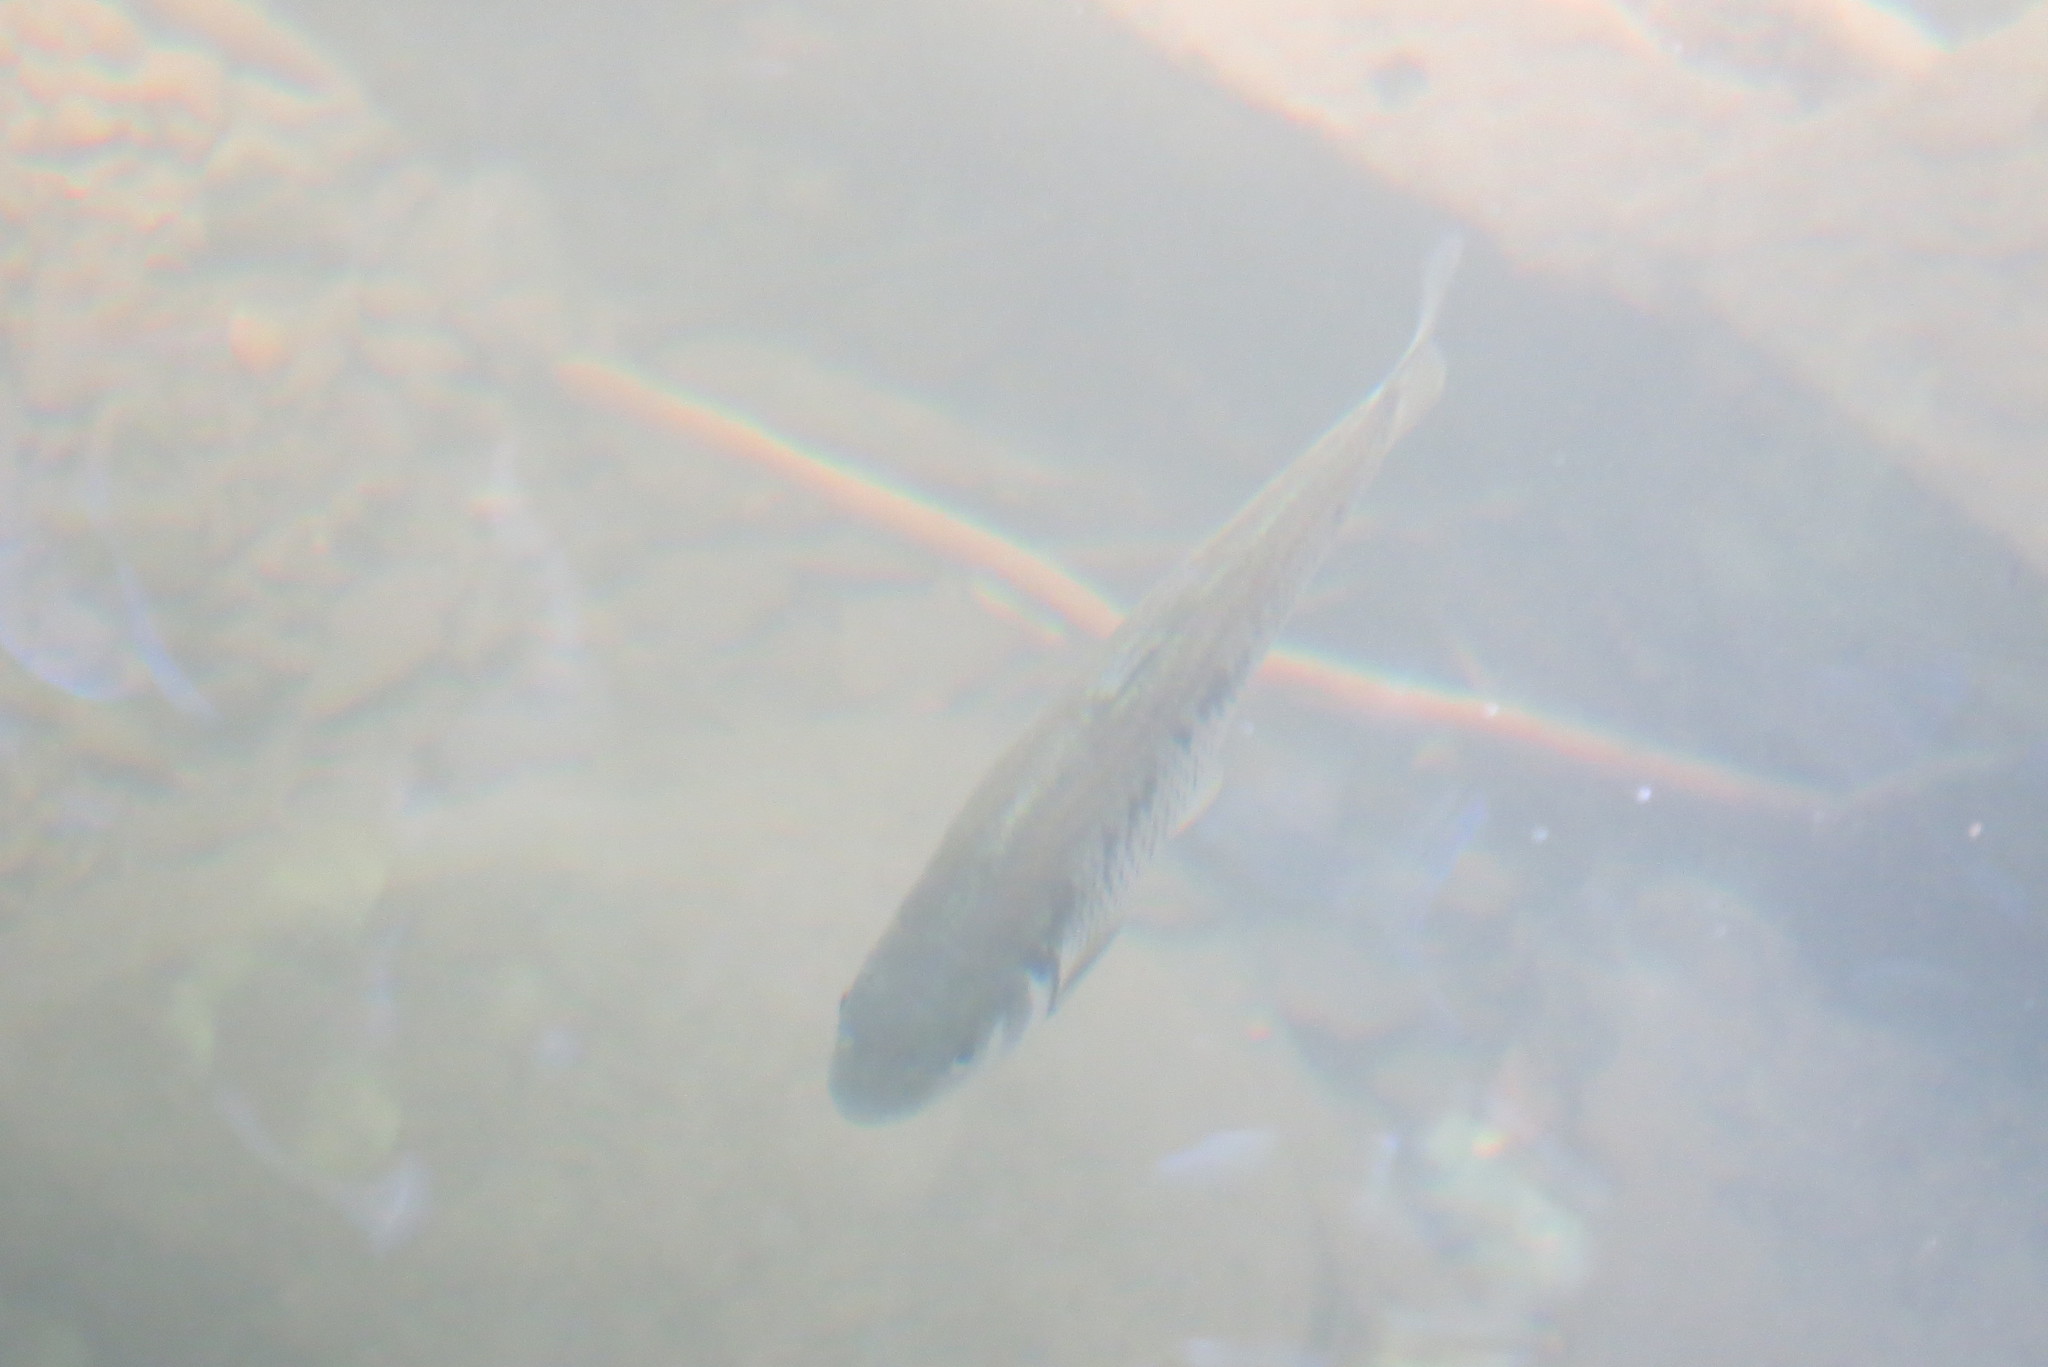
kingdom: Animalia
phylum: Chordata
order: Cypriniformes
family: Cyprinidae
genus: Luxilus
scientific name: Luxilus chrysocephalus
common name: Striped shiner
